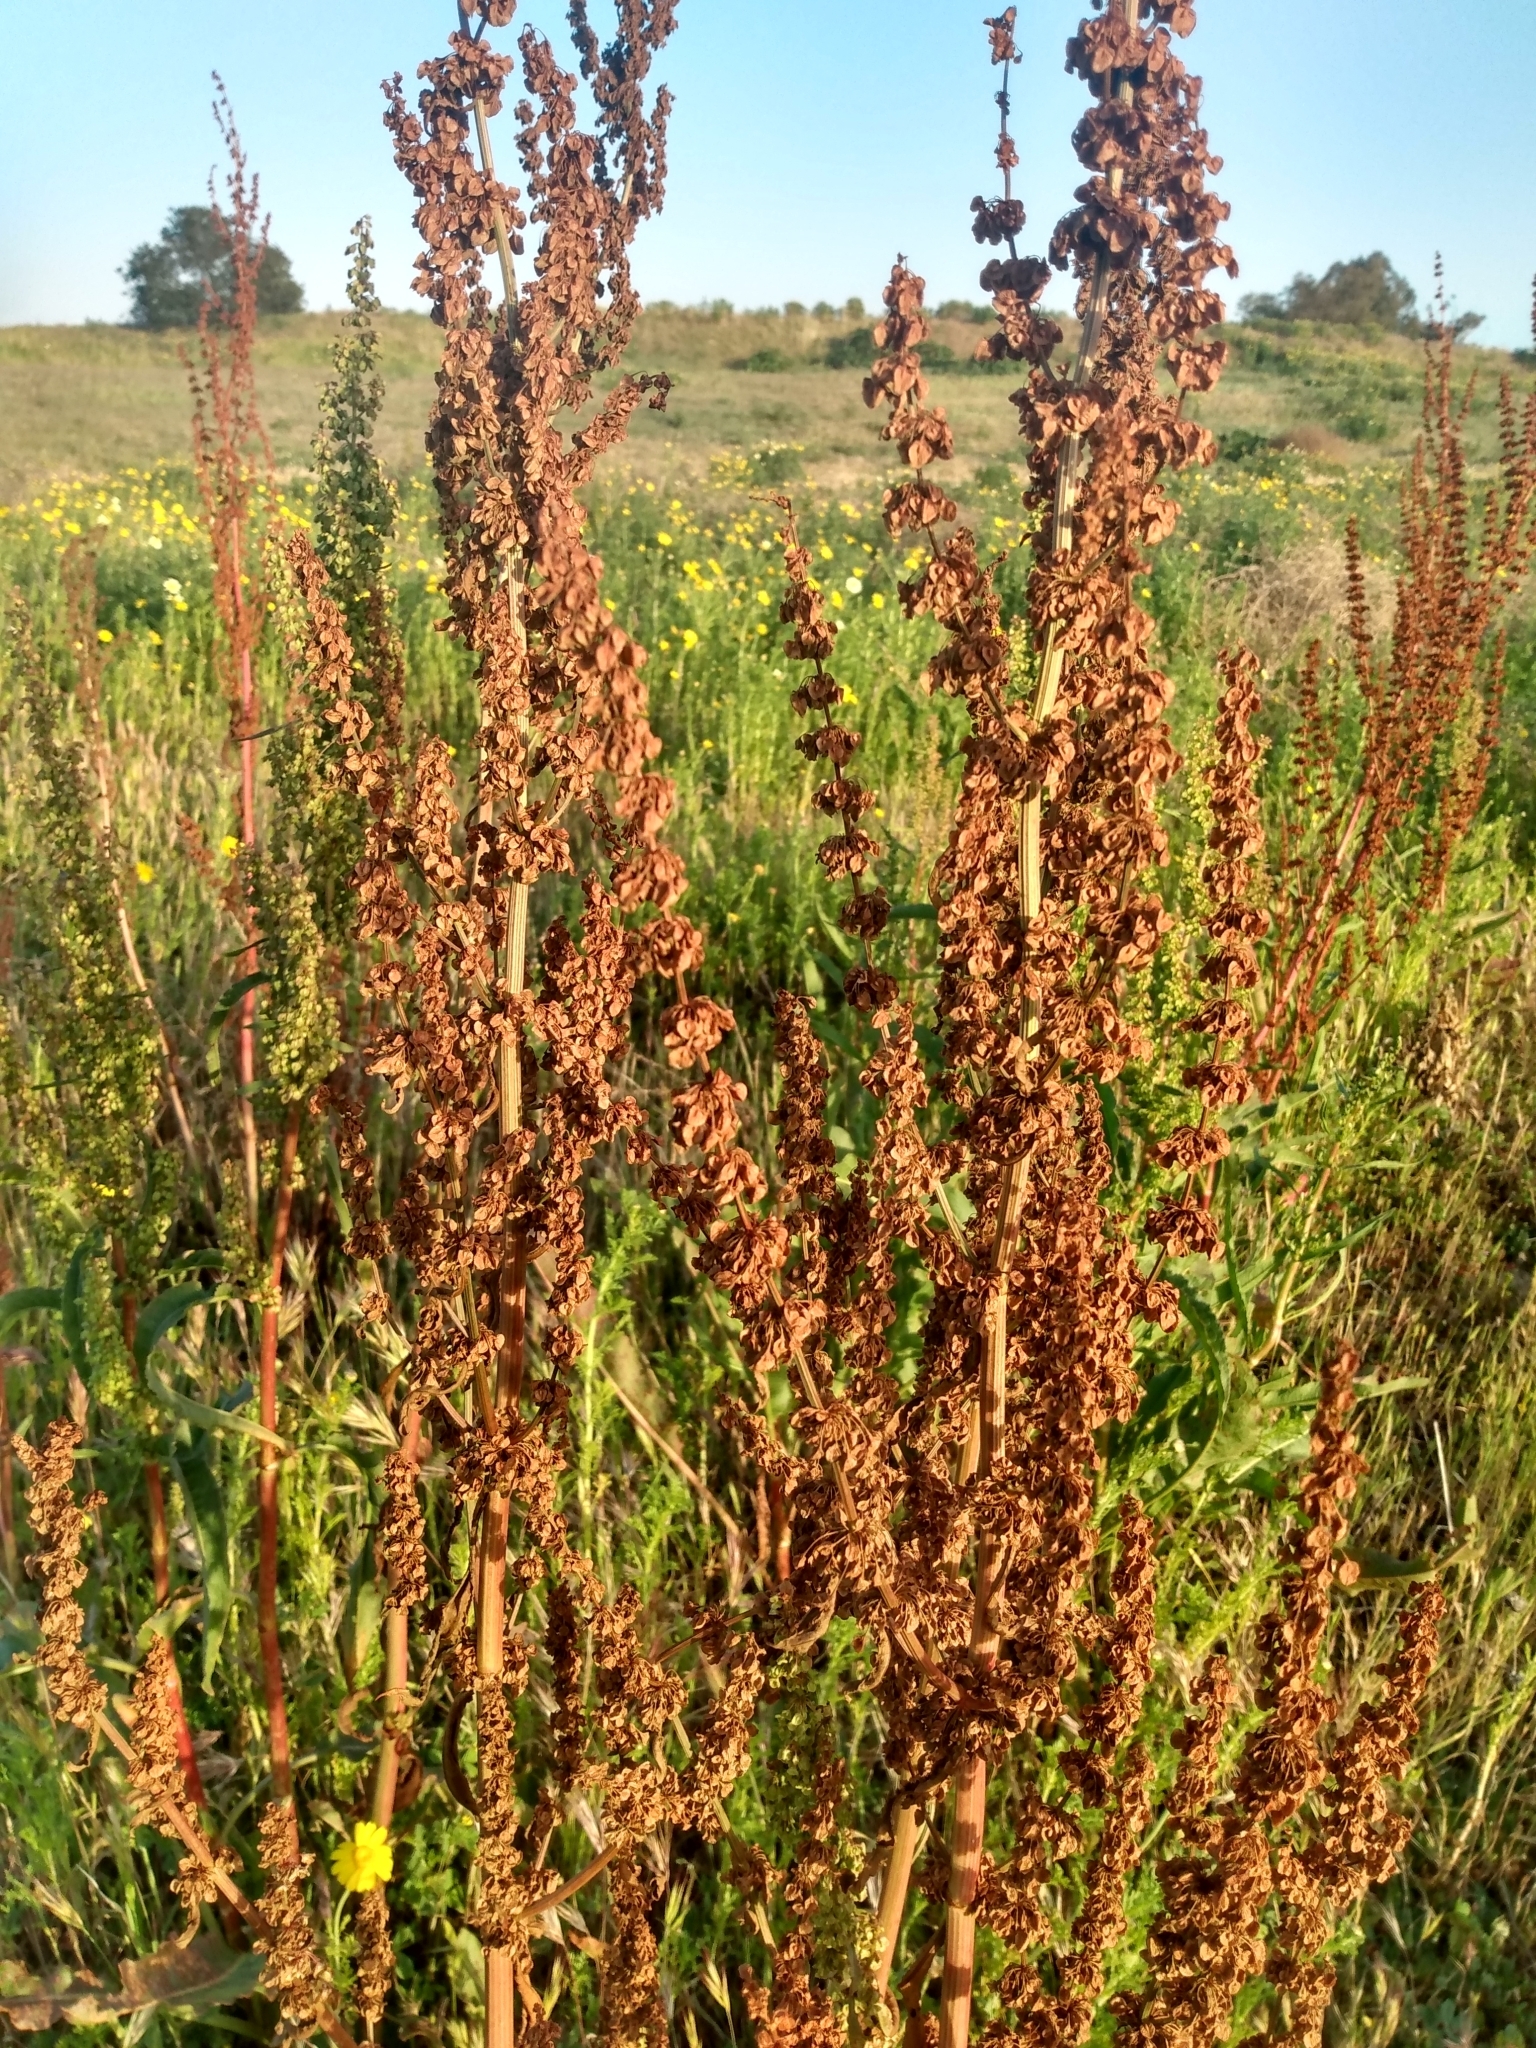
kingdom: Plantae
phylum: Tracheophyta
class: Magnoliopsida
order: Caryophyllales
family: Polygonaceae
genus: Rumex
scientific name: Rumex crispus
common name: Curled dock
